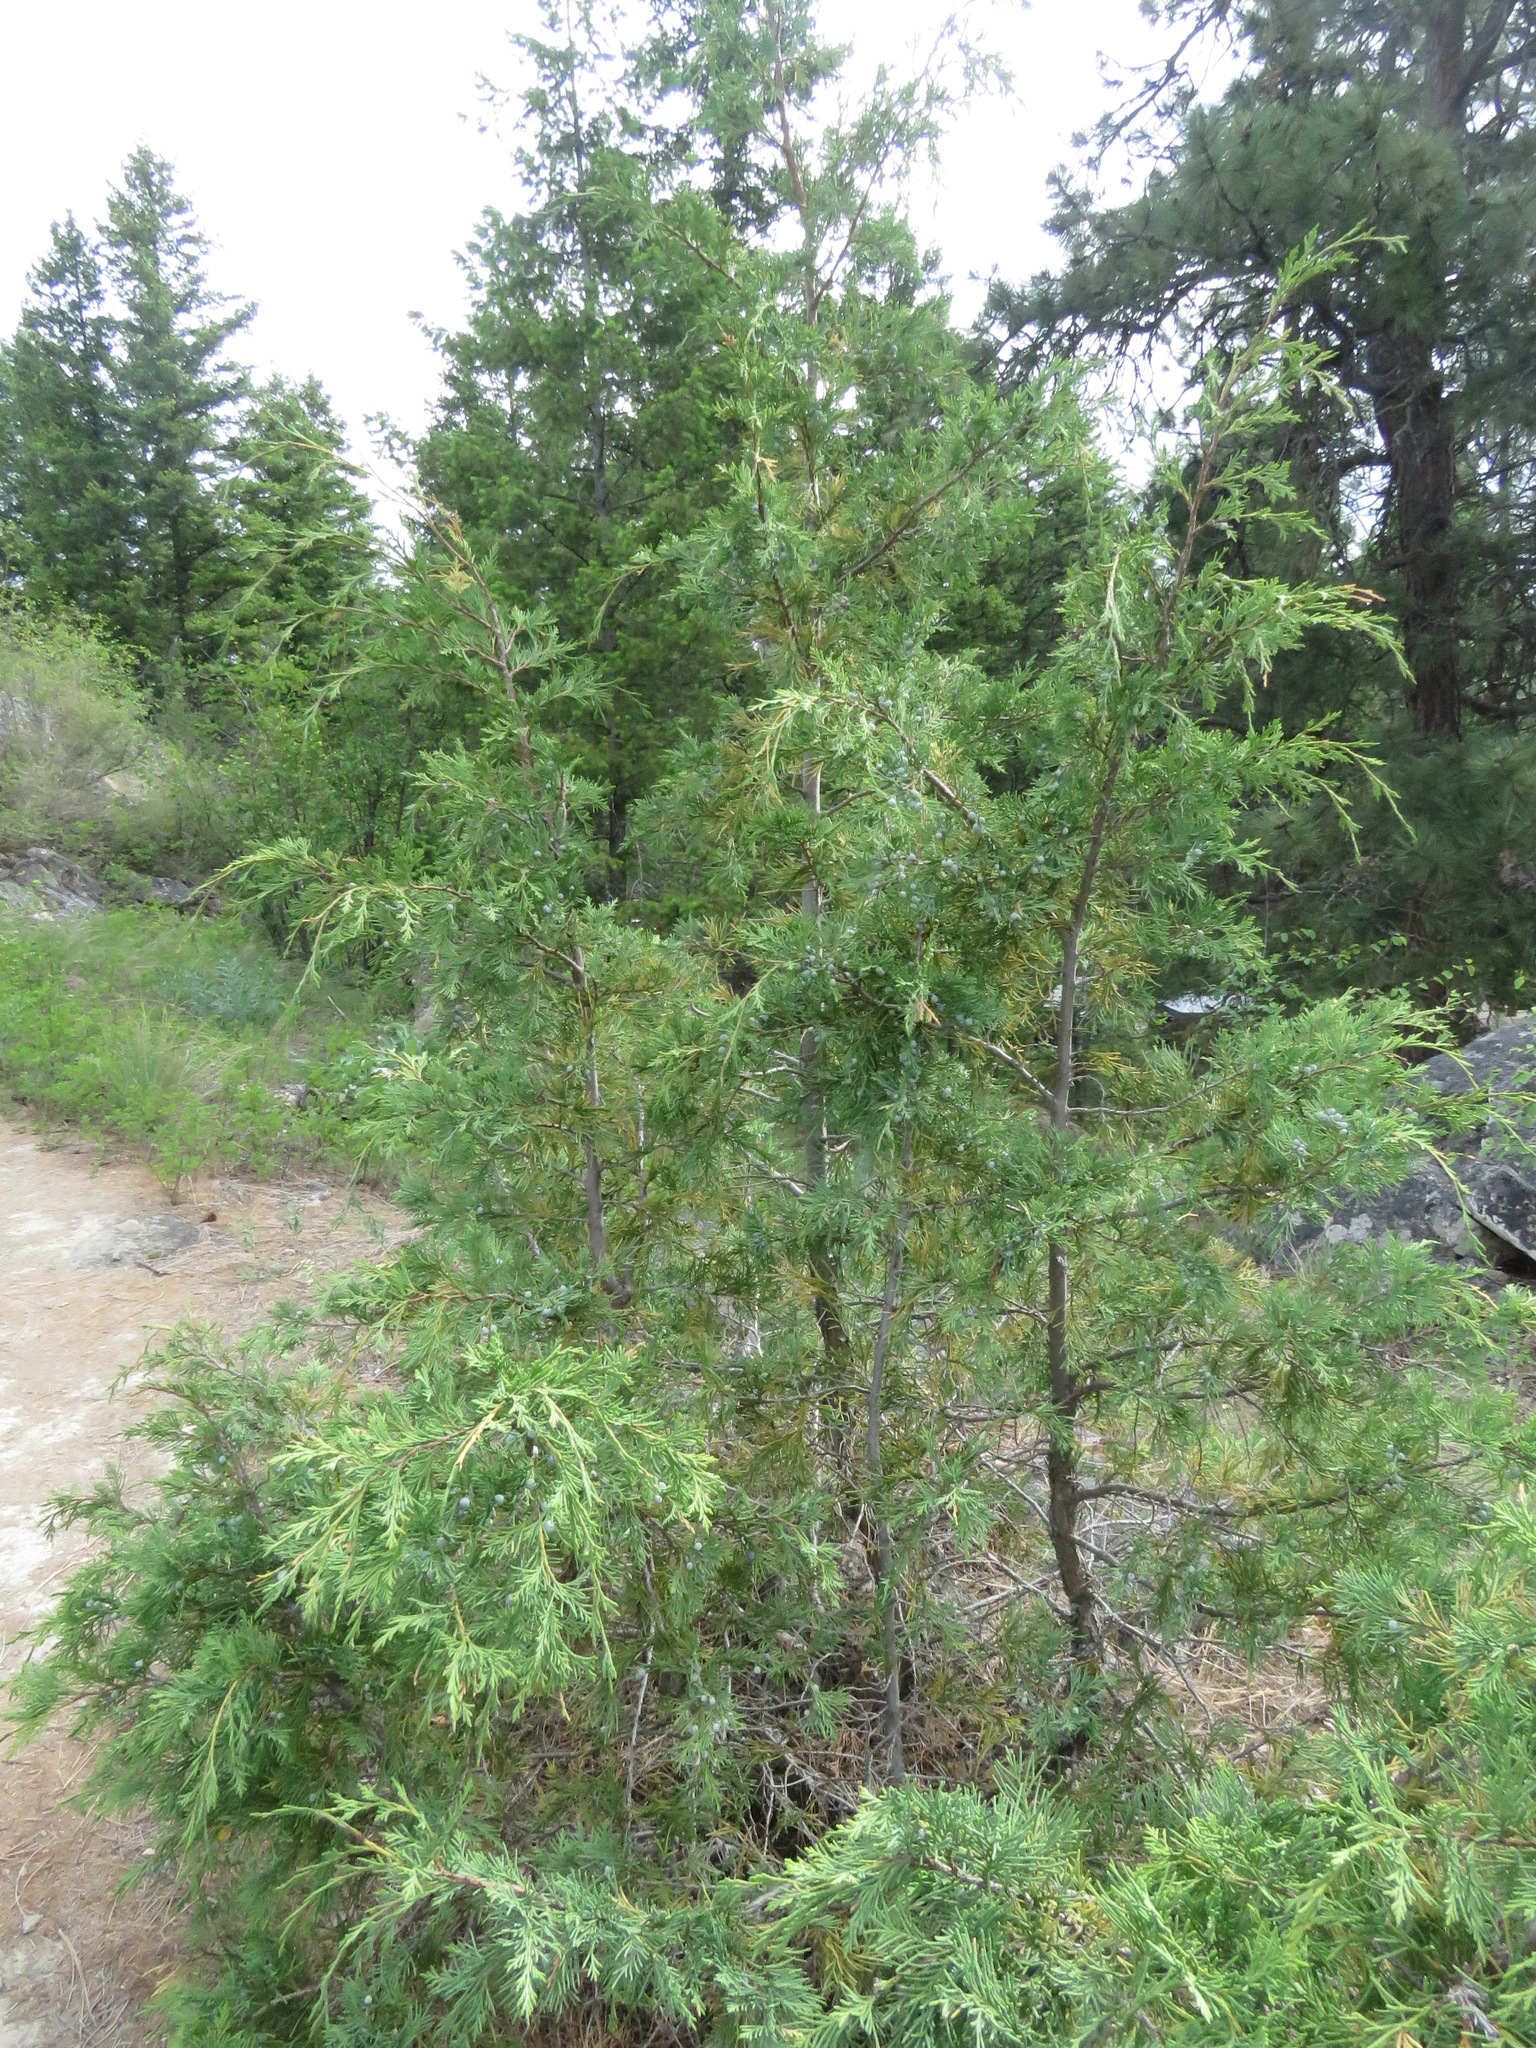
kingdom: Plantae
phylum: Tracheophyta
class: Pinopsida
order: Pinales
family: Cupressaceae
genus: Juniperus
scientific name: Juniperus scopulorum
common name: Rocky mountain juniper
